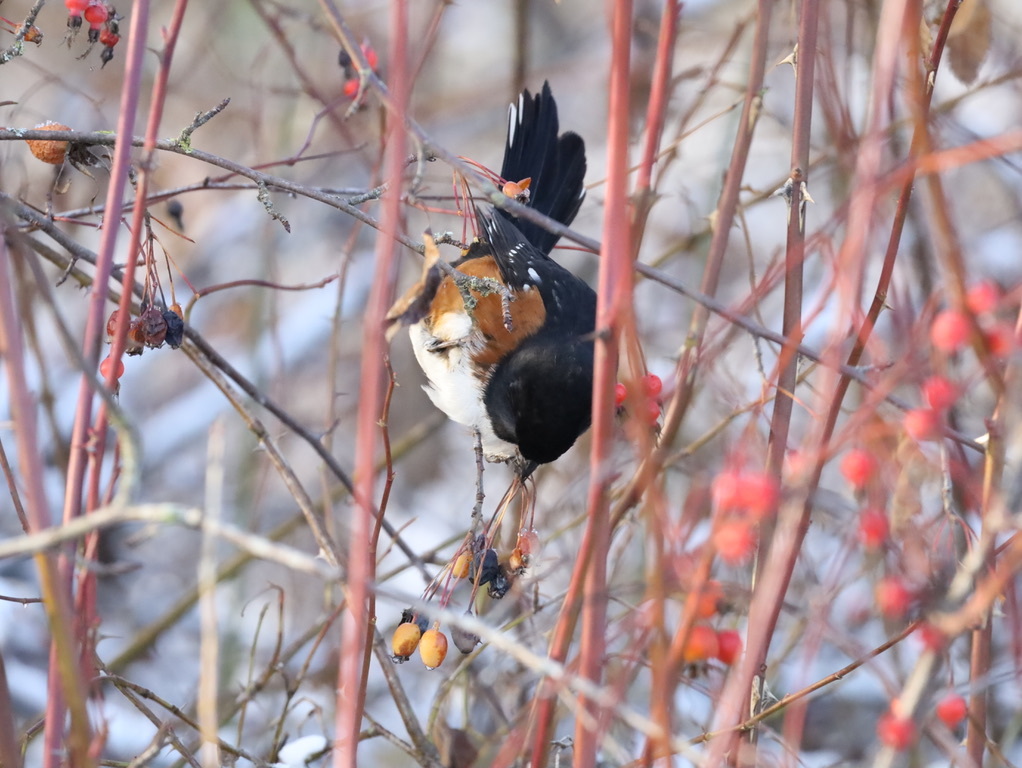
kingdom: Animalia
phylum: Chordata
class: Aves
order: Passeriformes
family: Passerellidae
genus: Pipilo
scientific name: Pipilo maculatus
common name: Spotted towhee
